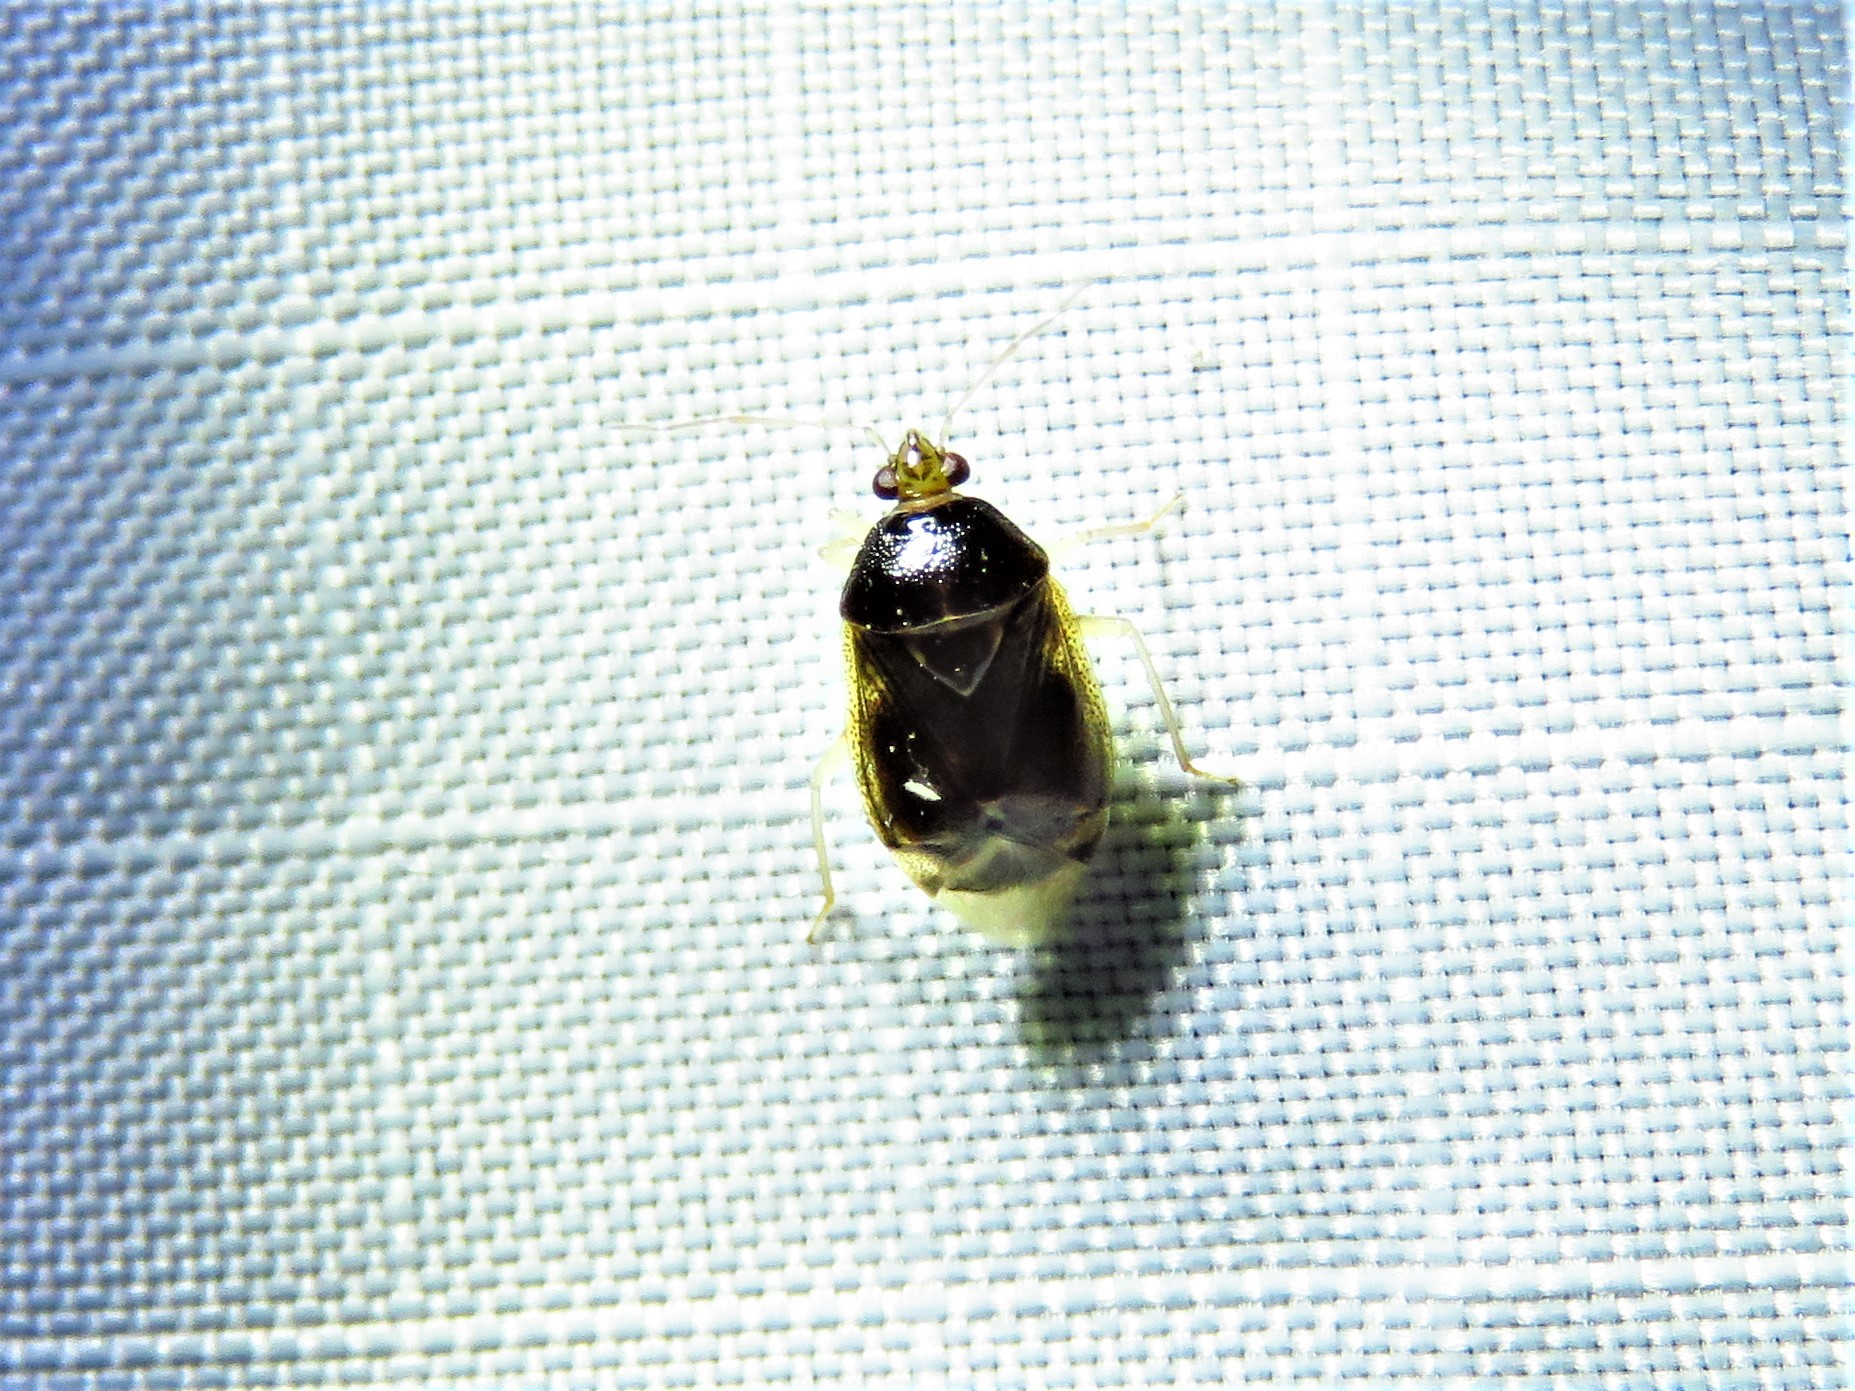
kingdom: Animalia
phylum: Arthropoda
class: Insecta
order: Hemiptera
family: Miridae
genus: Deraeocoris
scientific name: Deraeocoris davisi
